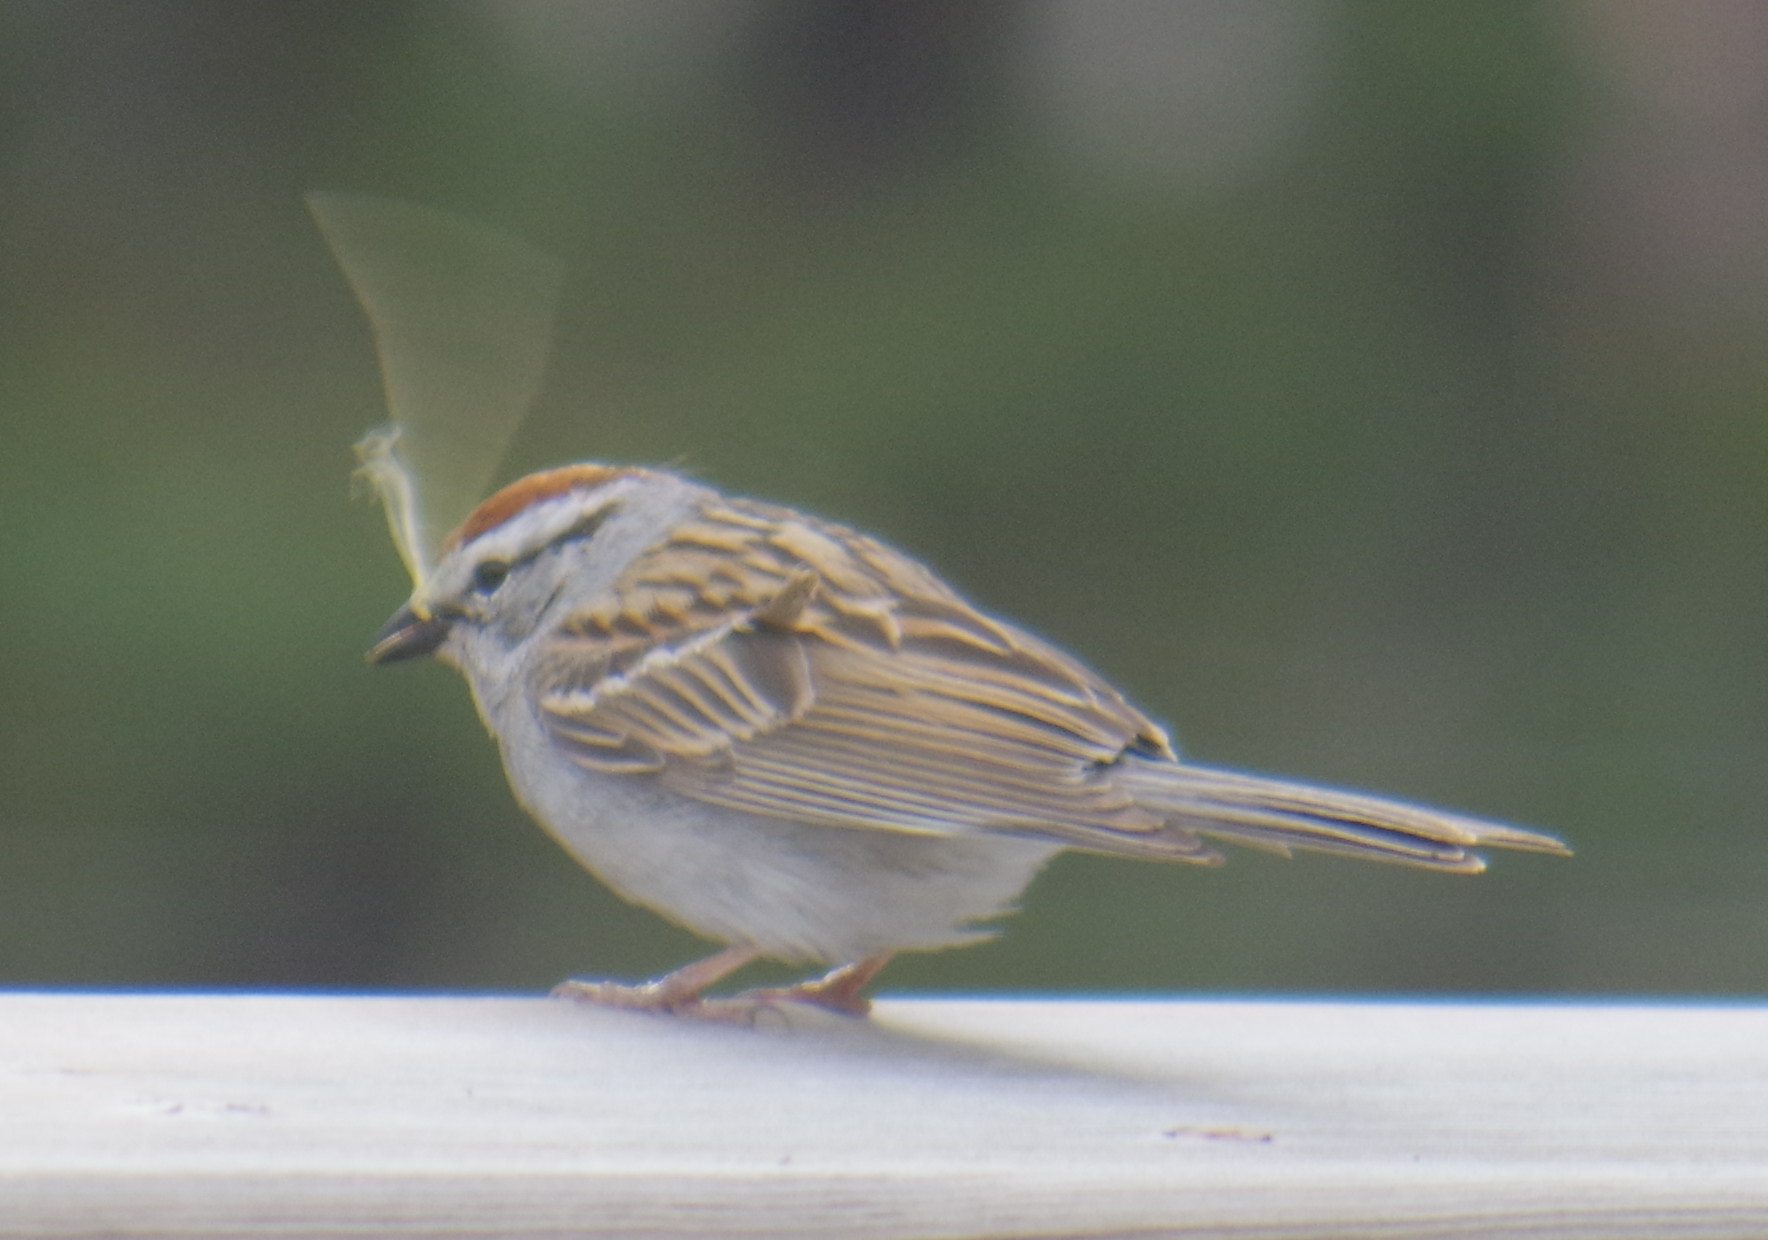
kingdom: Animalia
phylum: Chordata
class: Aves
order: Passeriformes
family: Passerellidae
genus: Spizella
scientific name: Spizella passerina
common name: Chipping sparrow
